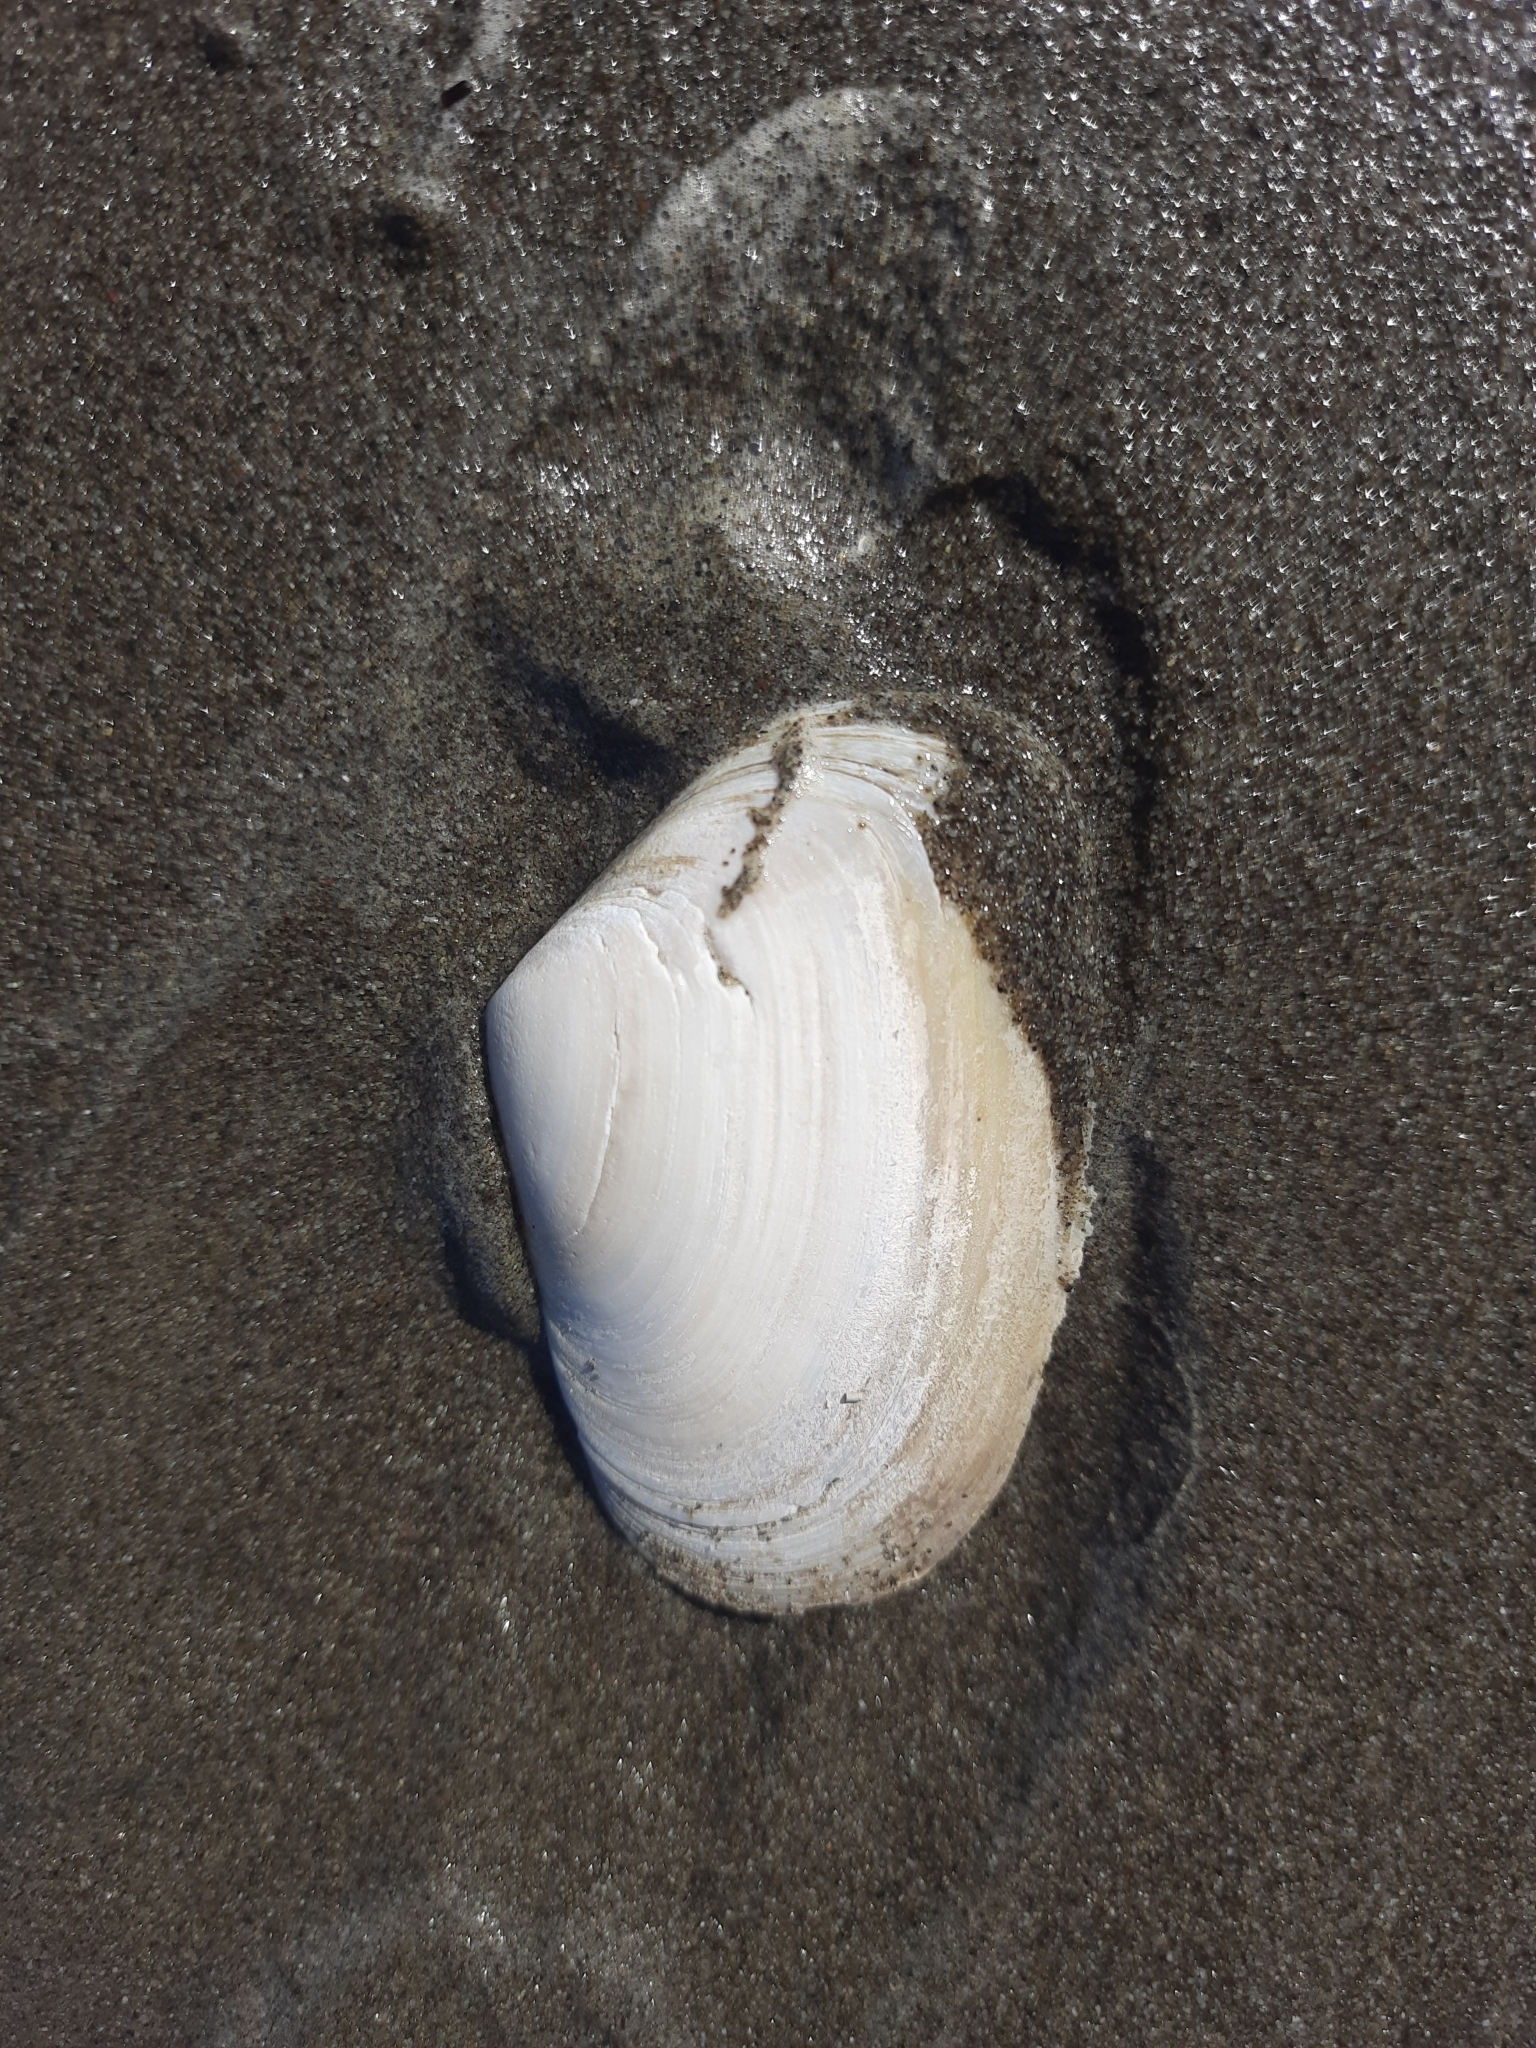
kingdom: Animalia
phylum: Mollusca
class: Bivalvia
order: Venerida
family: Mesodesmatidae
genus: Paphies
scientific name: Paphies donacina
